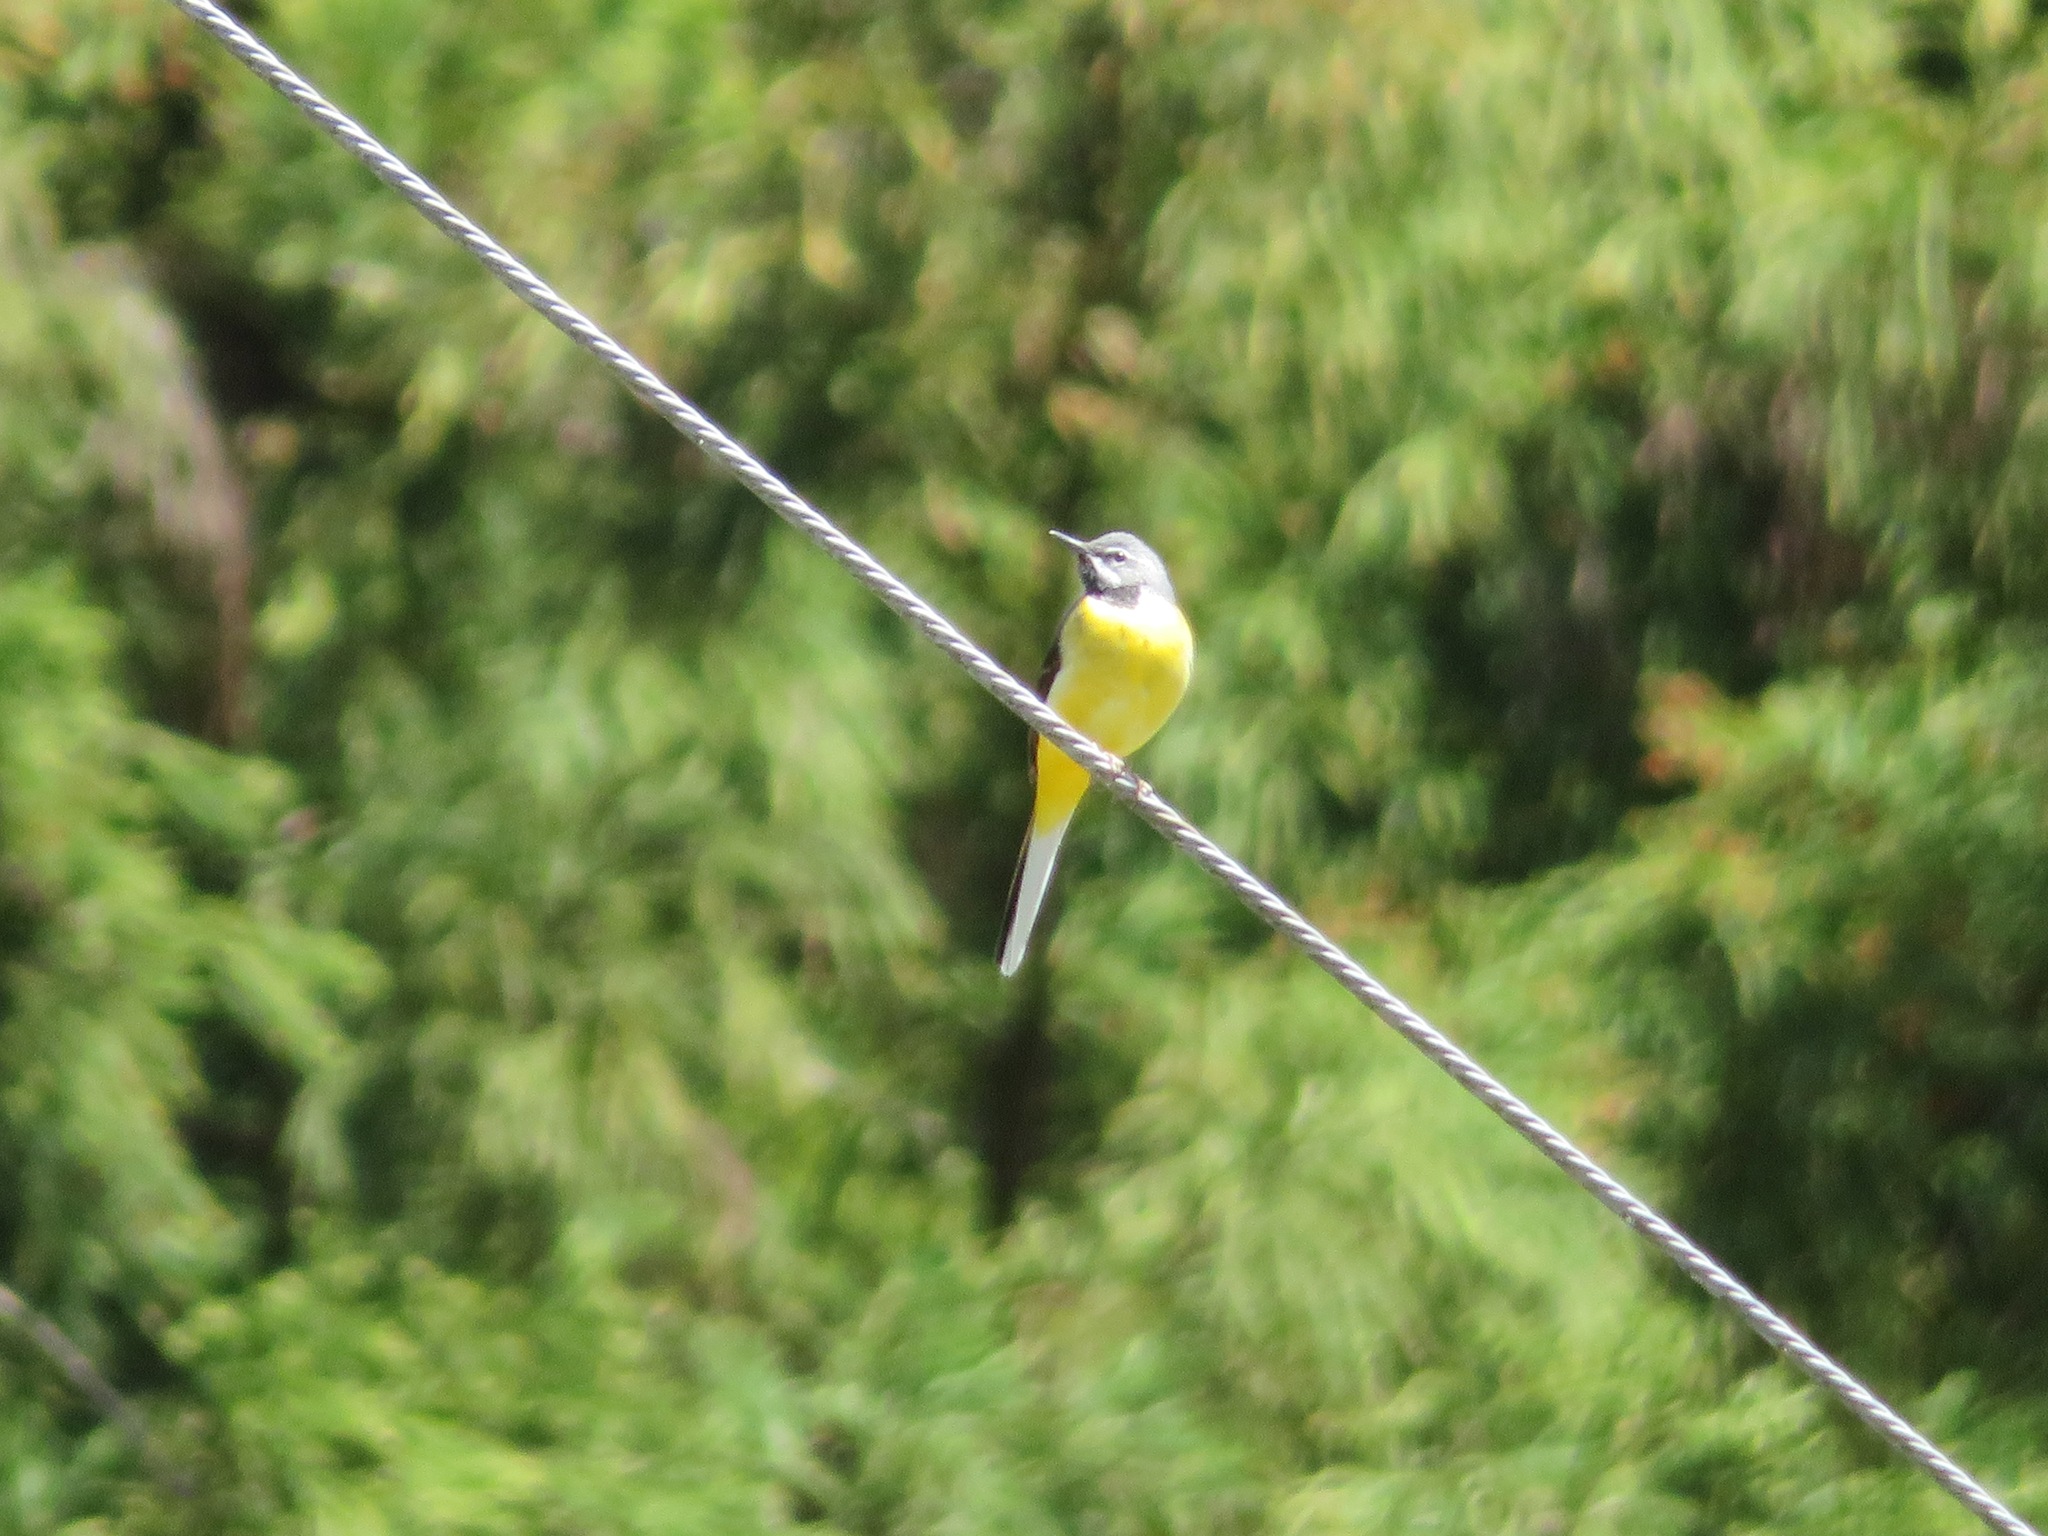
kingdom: Animalia
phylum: Chordata
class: Aves
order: Passeriformes
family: Motacillidae
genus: Motacilla
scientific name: Motacilla cinerea
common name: Grey wagtail
